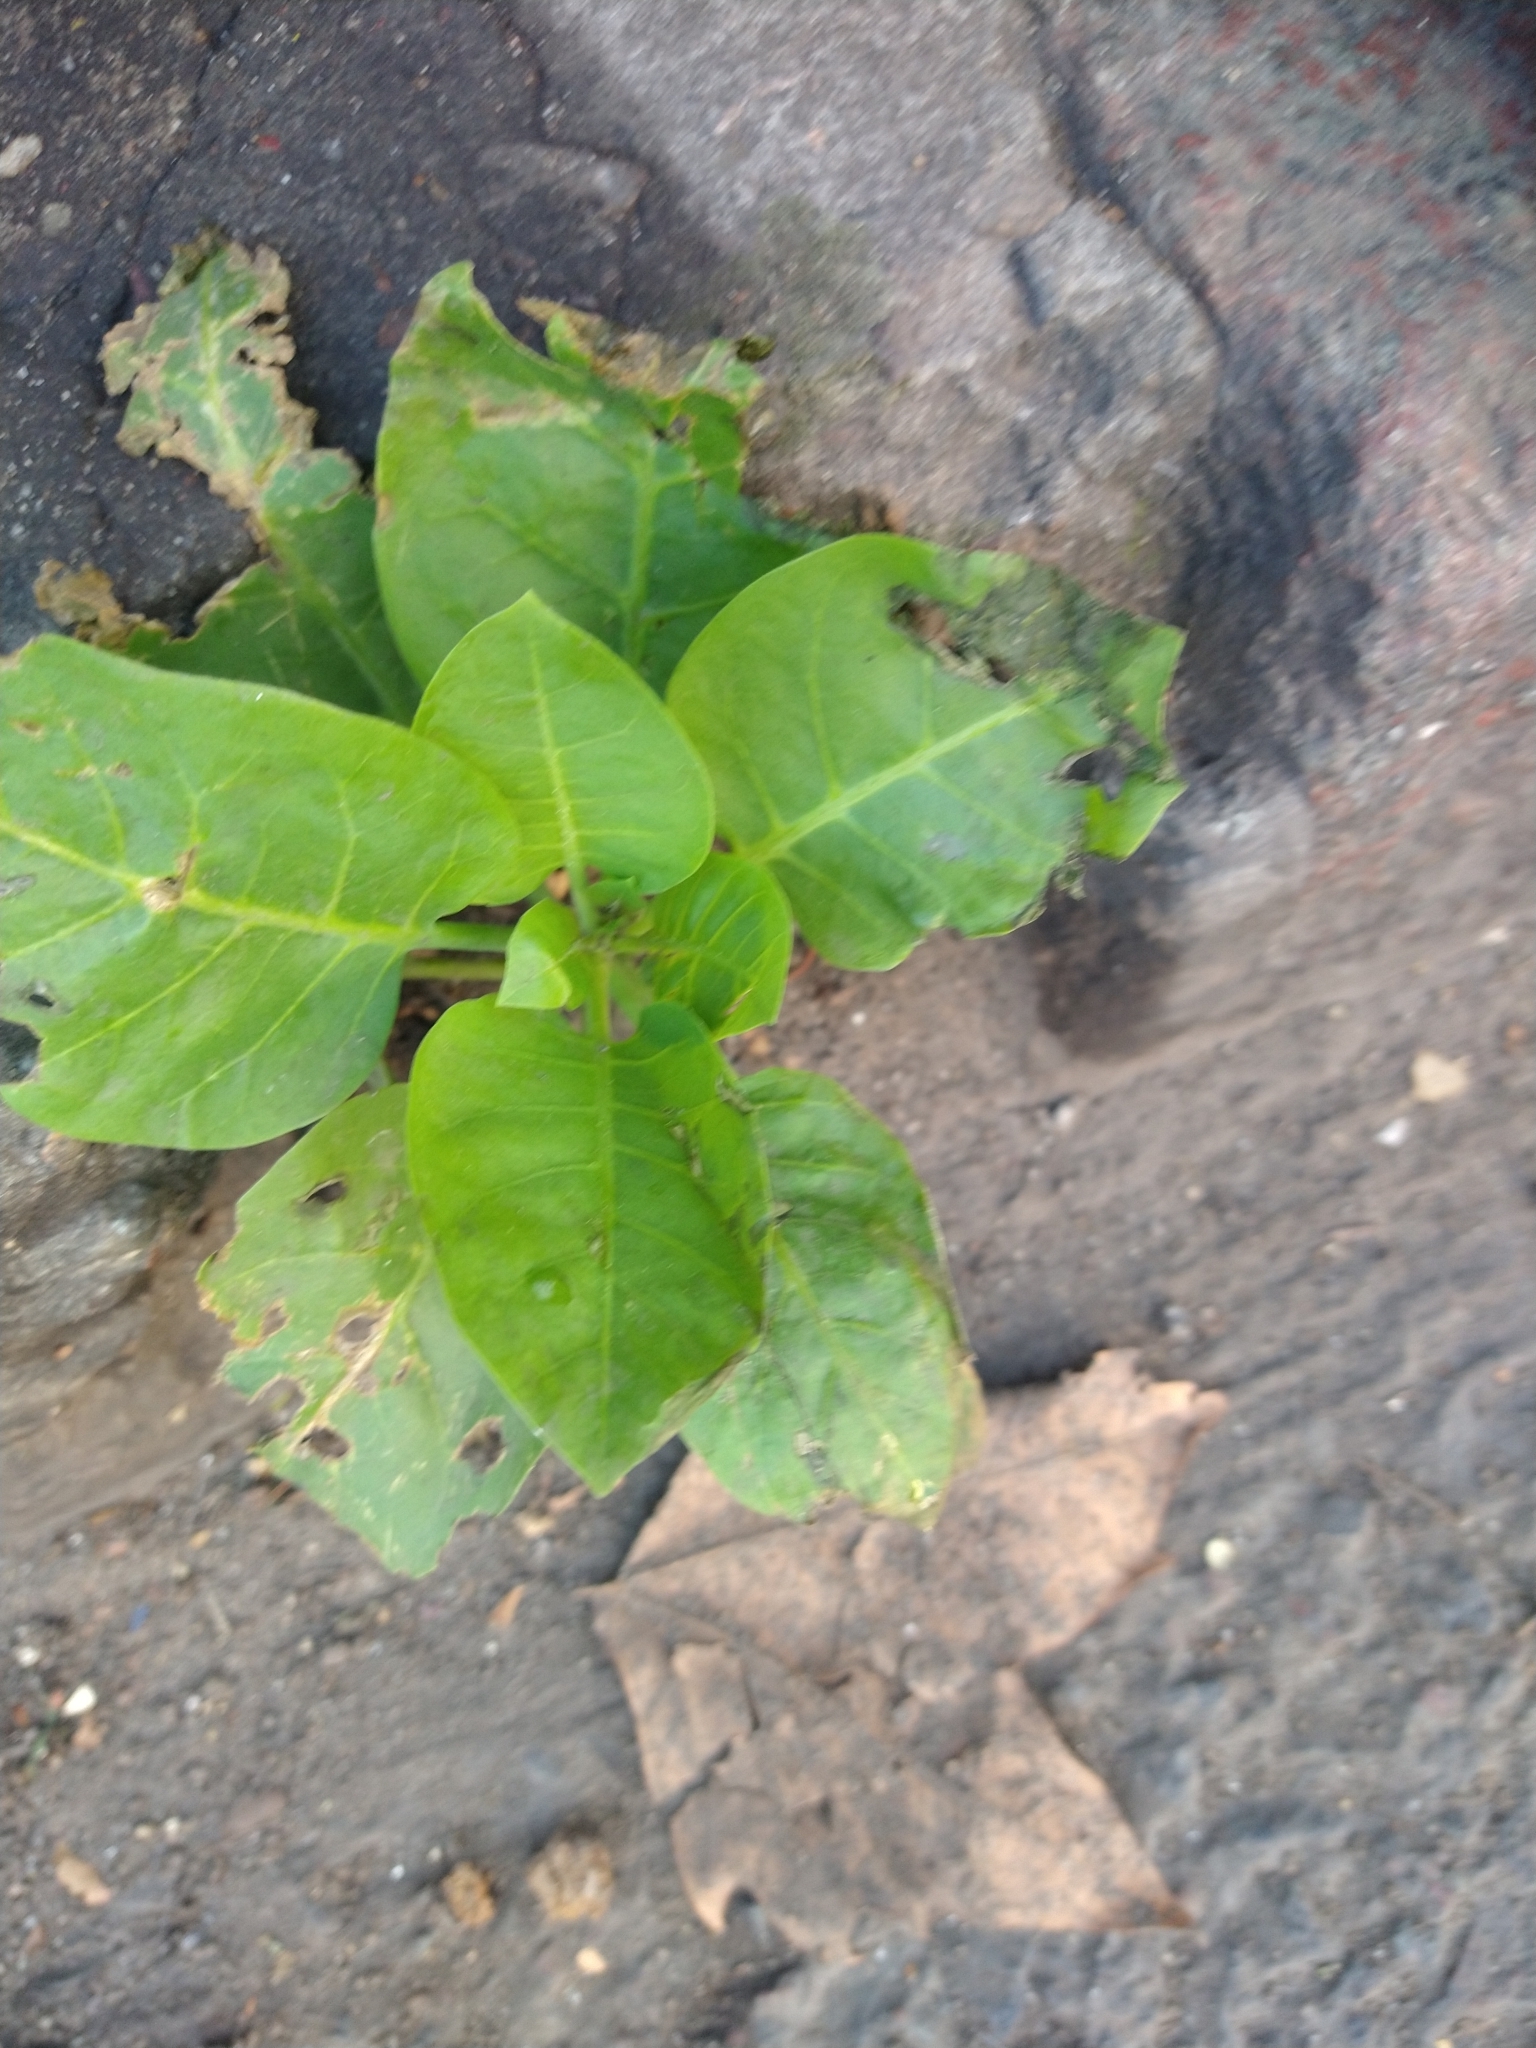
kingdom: Plantae
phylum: Tracheophyta
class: Magnoliopsida
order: Solanales
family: Solanaceae
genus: Nicotiana
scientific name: Nicotiana glauca
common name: Tree tobacco
